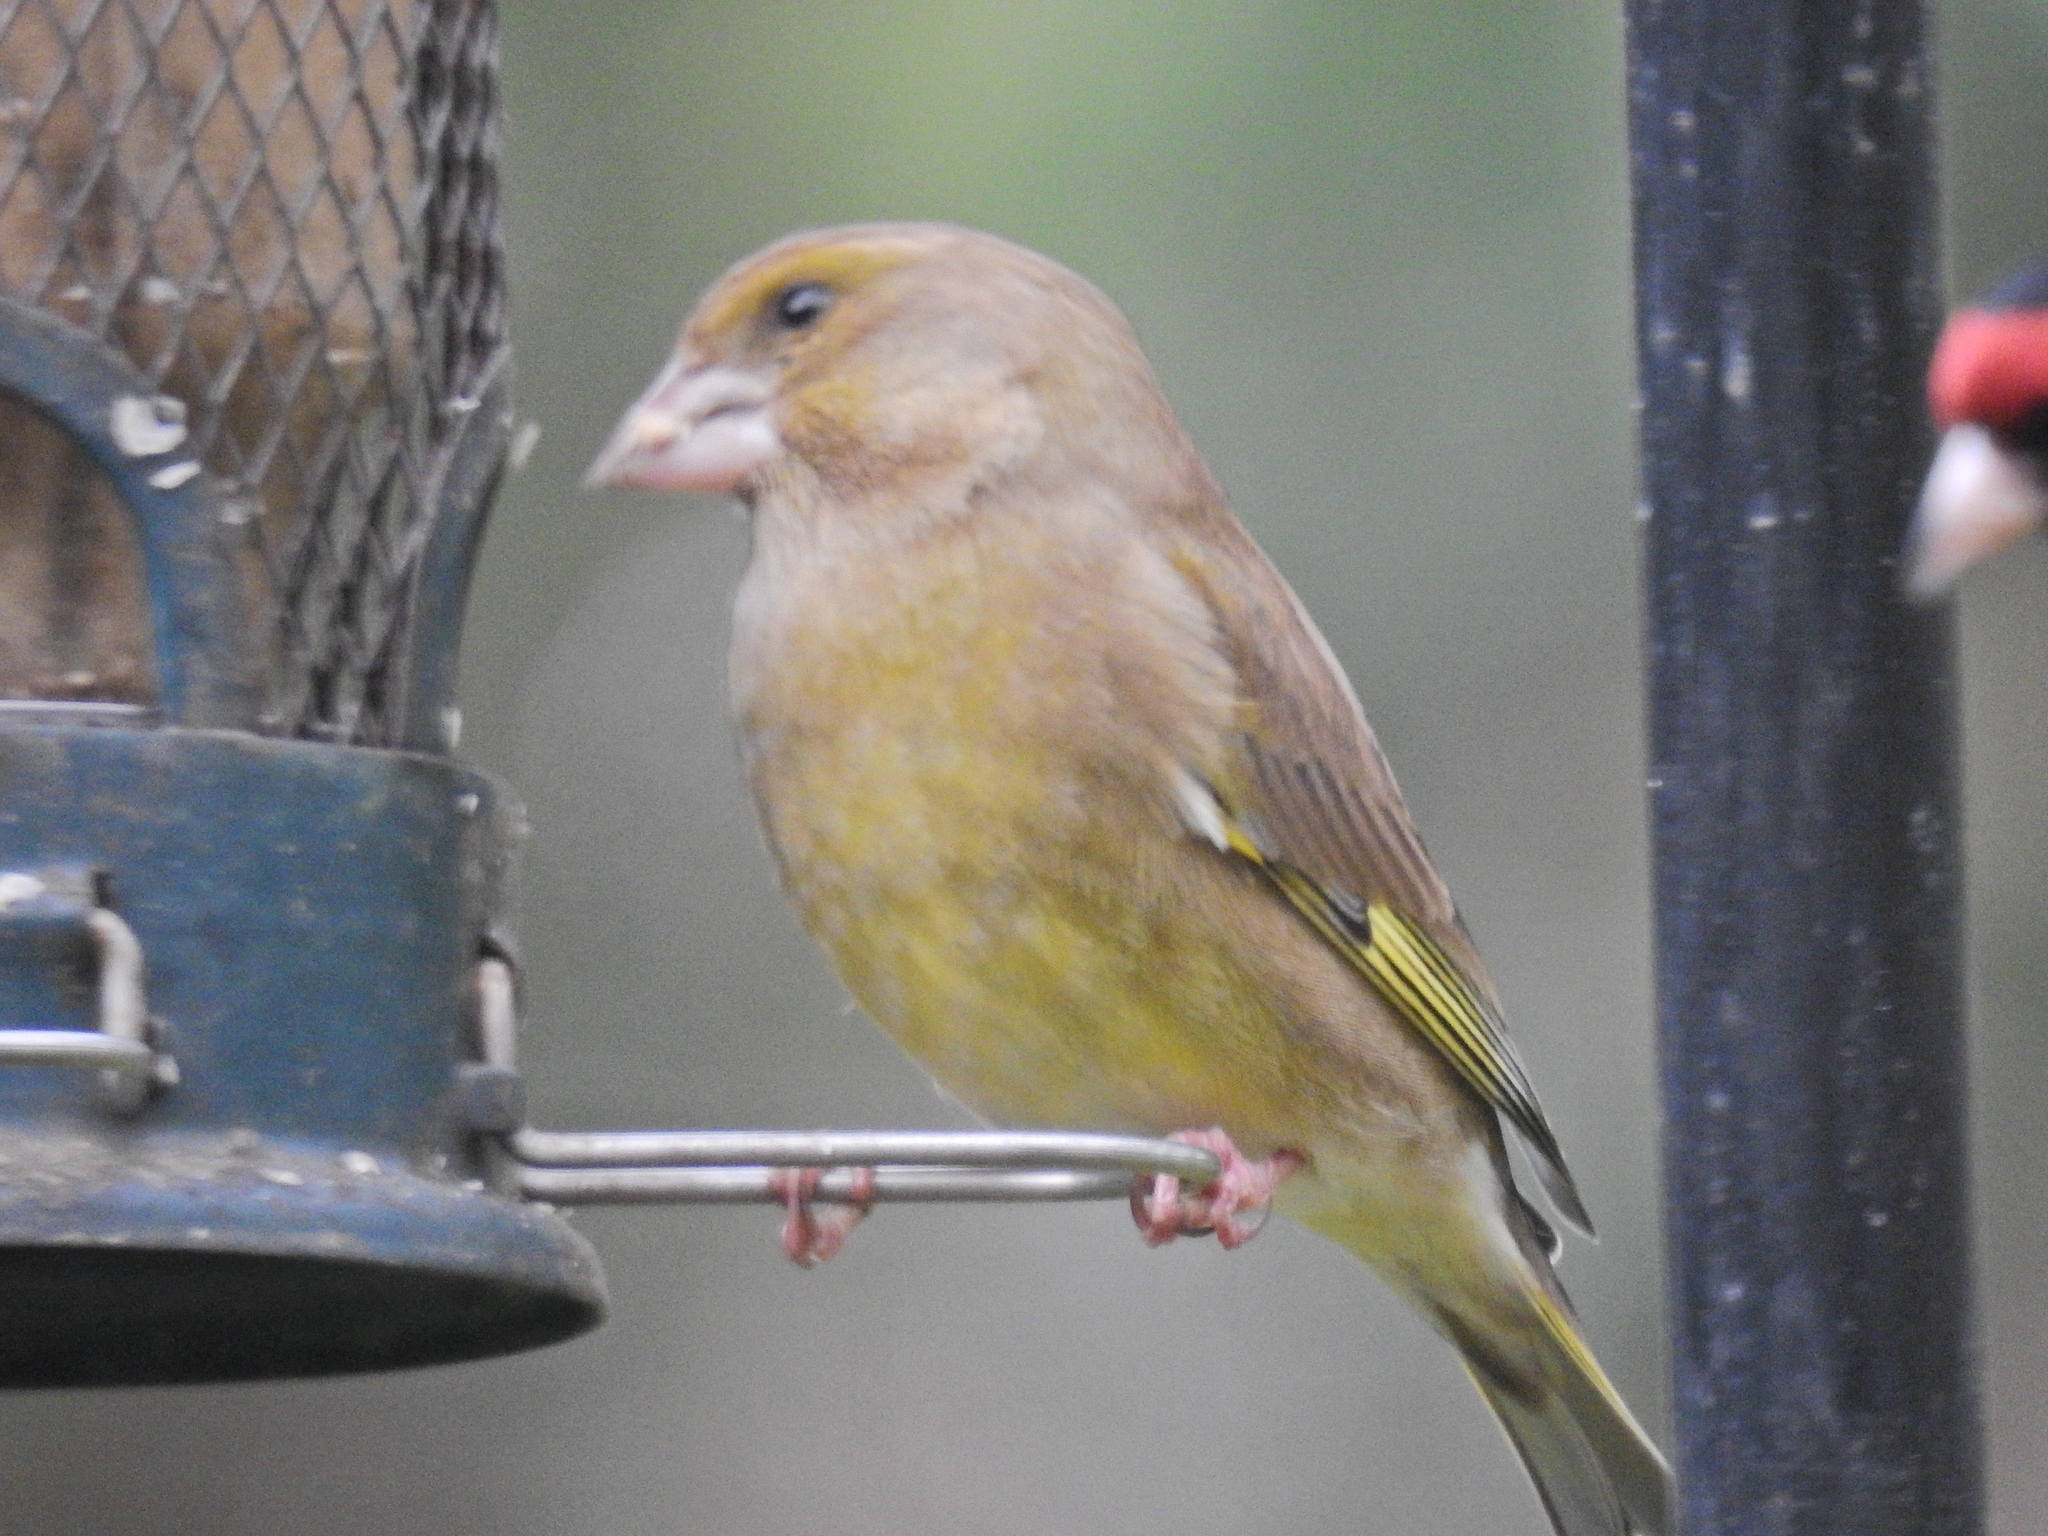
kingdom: Plantae
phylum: Tracheophyta
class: Liliopsida
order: Poales
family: Poaceae
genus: Chloris
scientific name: Chloris chloris
